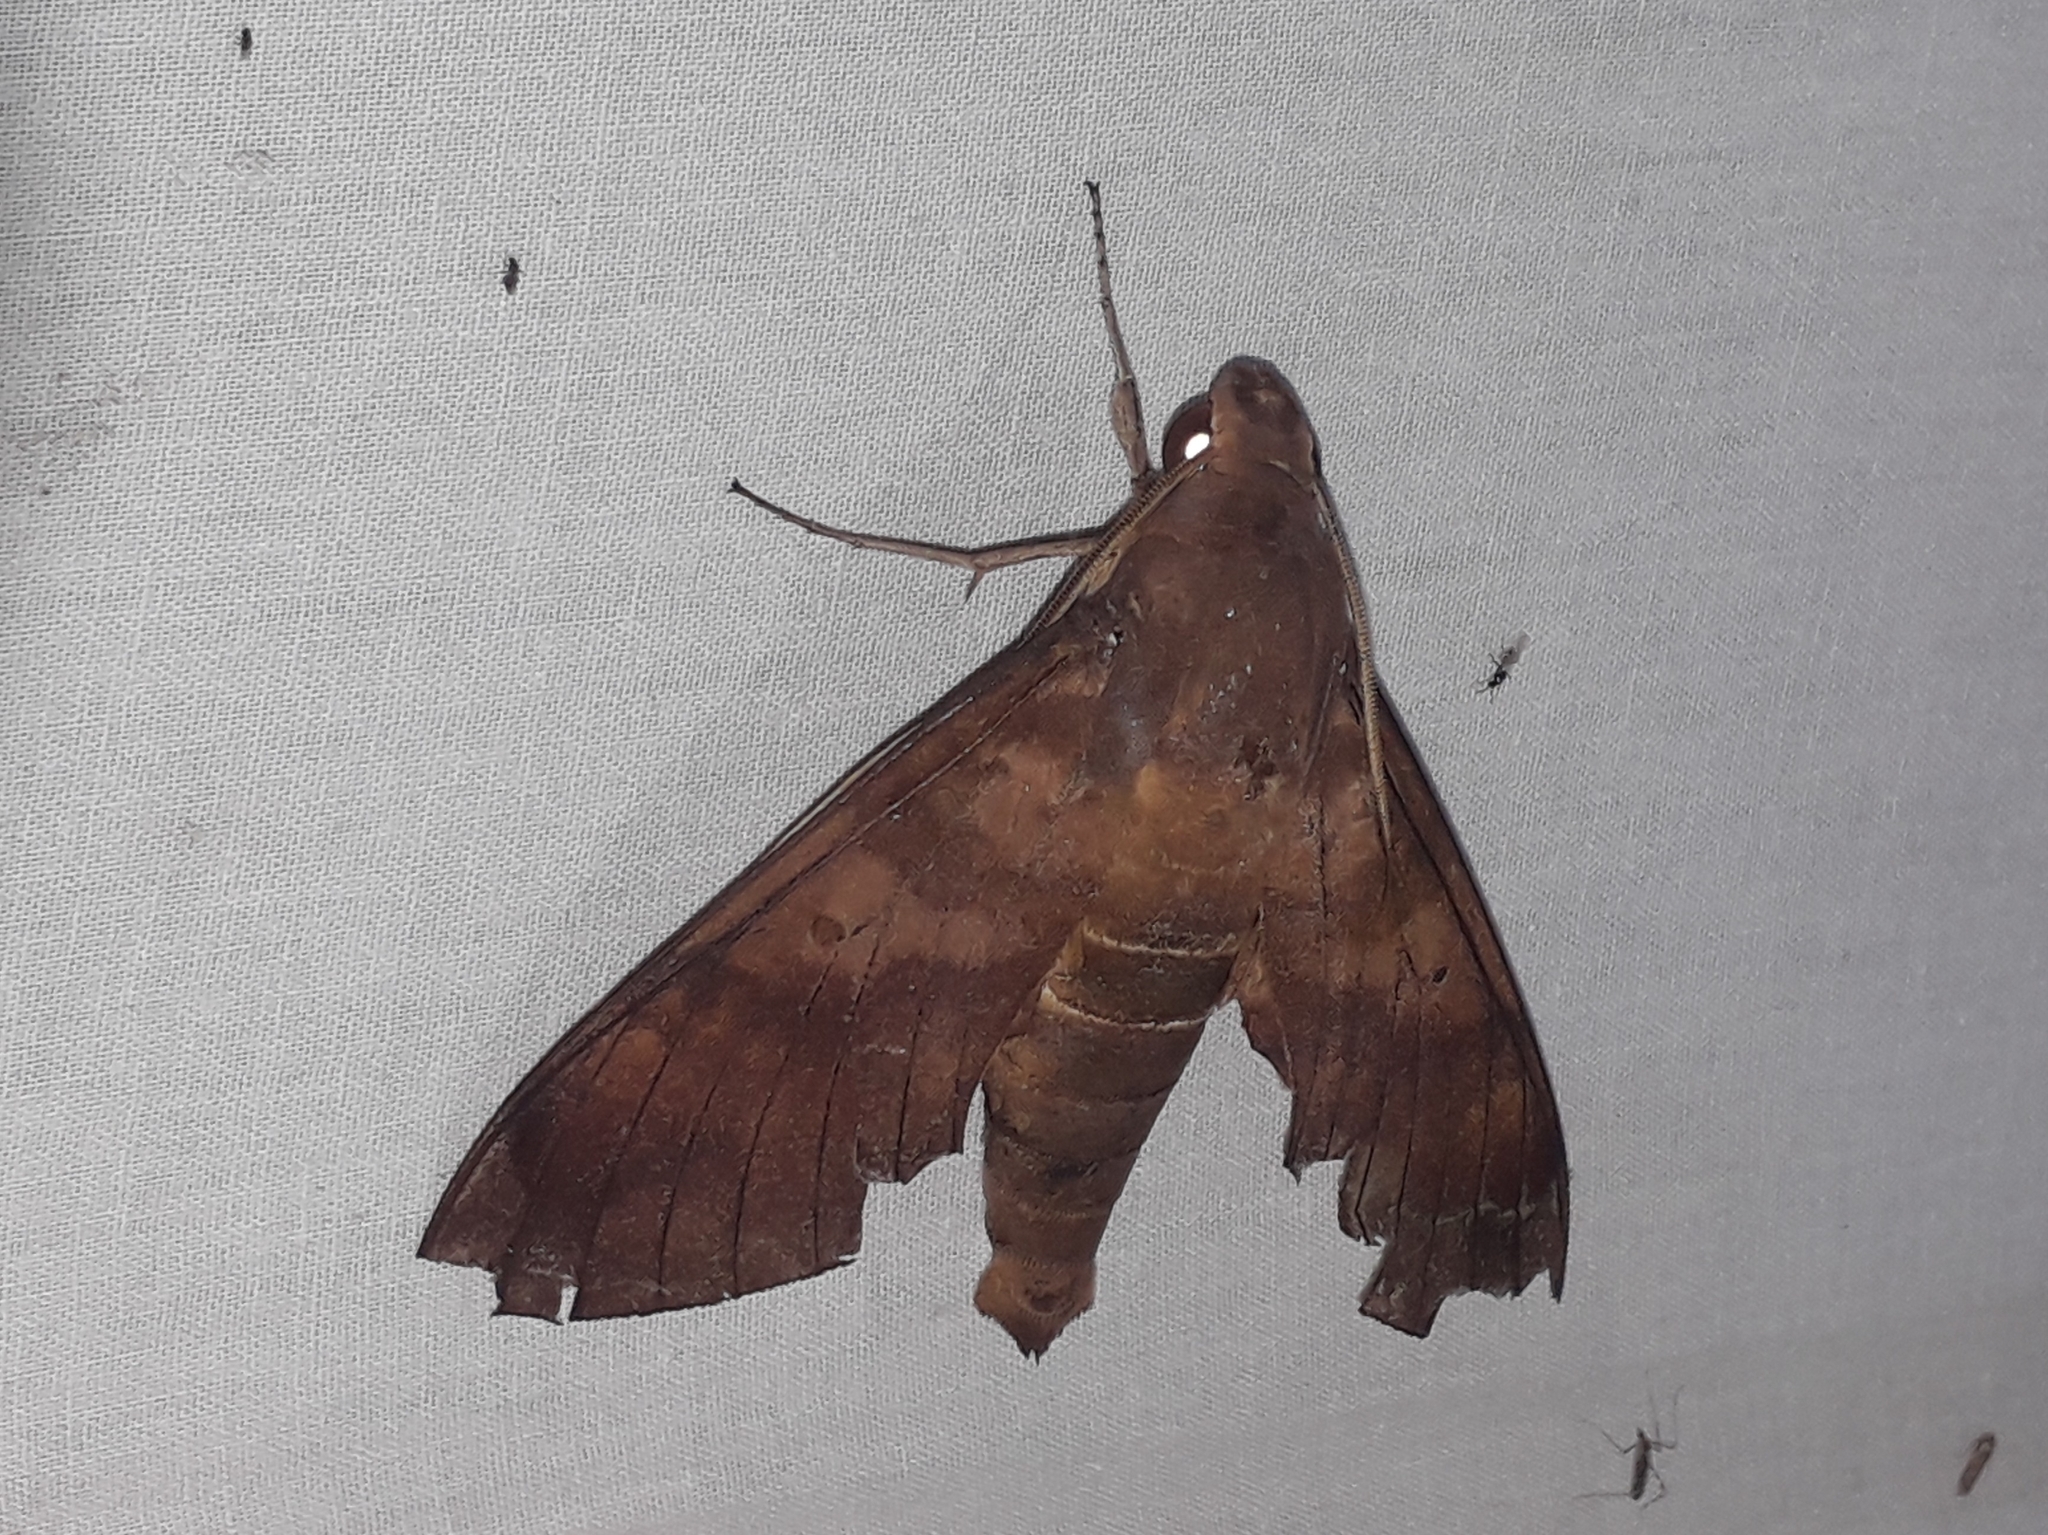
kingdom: Animalia
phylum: Arthropoda
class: Insecta
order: Lepidoptera
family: Sphingidae
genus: Pachylia
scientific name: Pachylia ficus
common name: Fig sphinx
